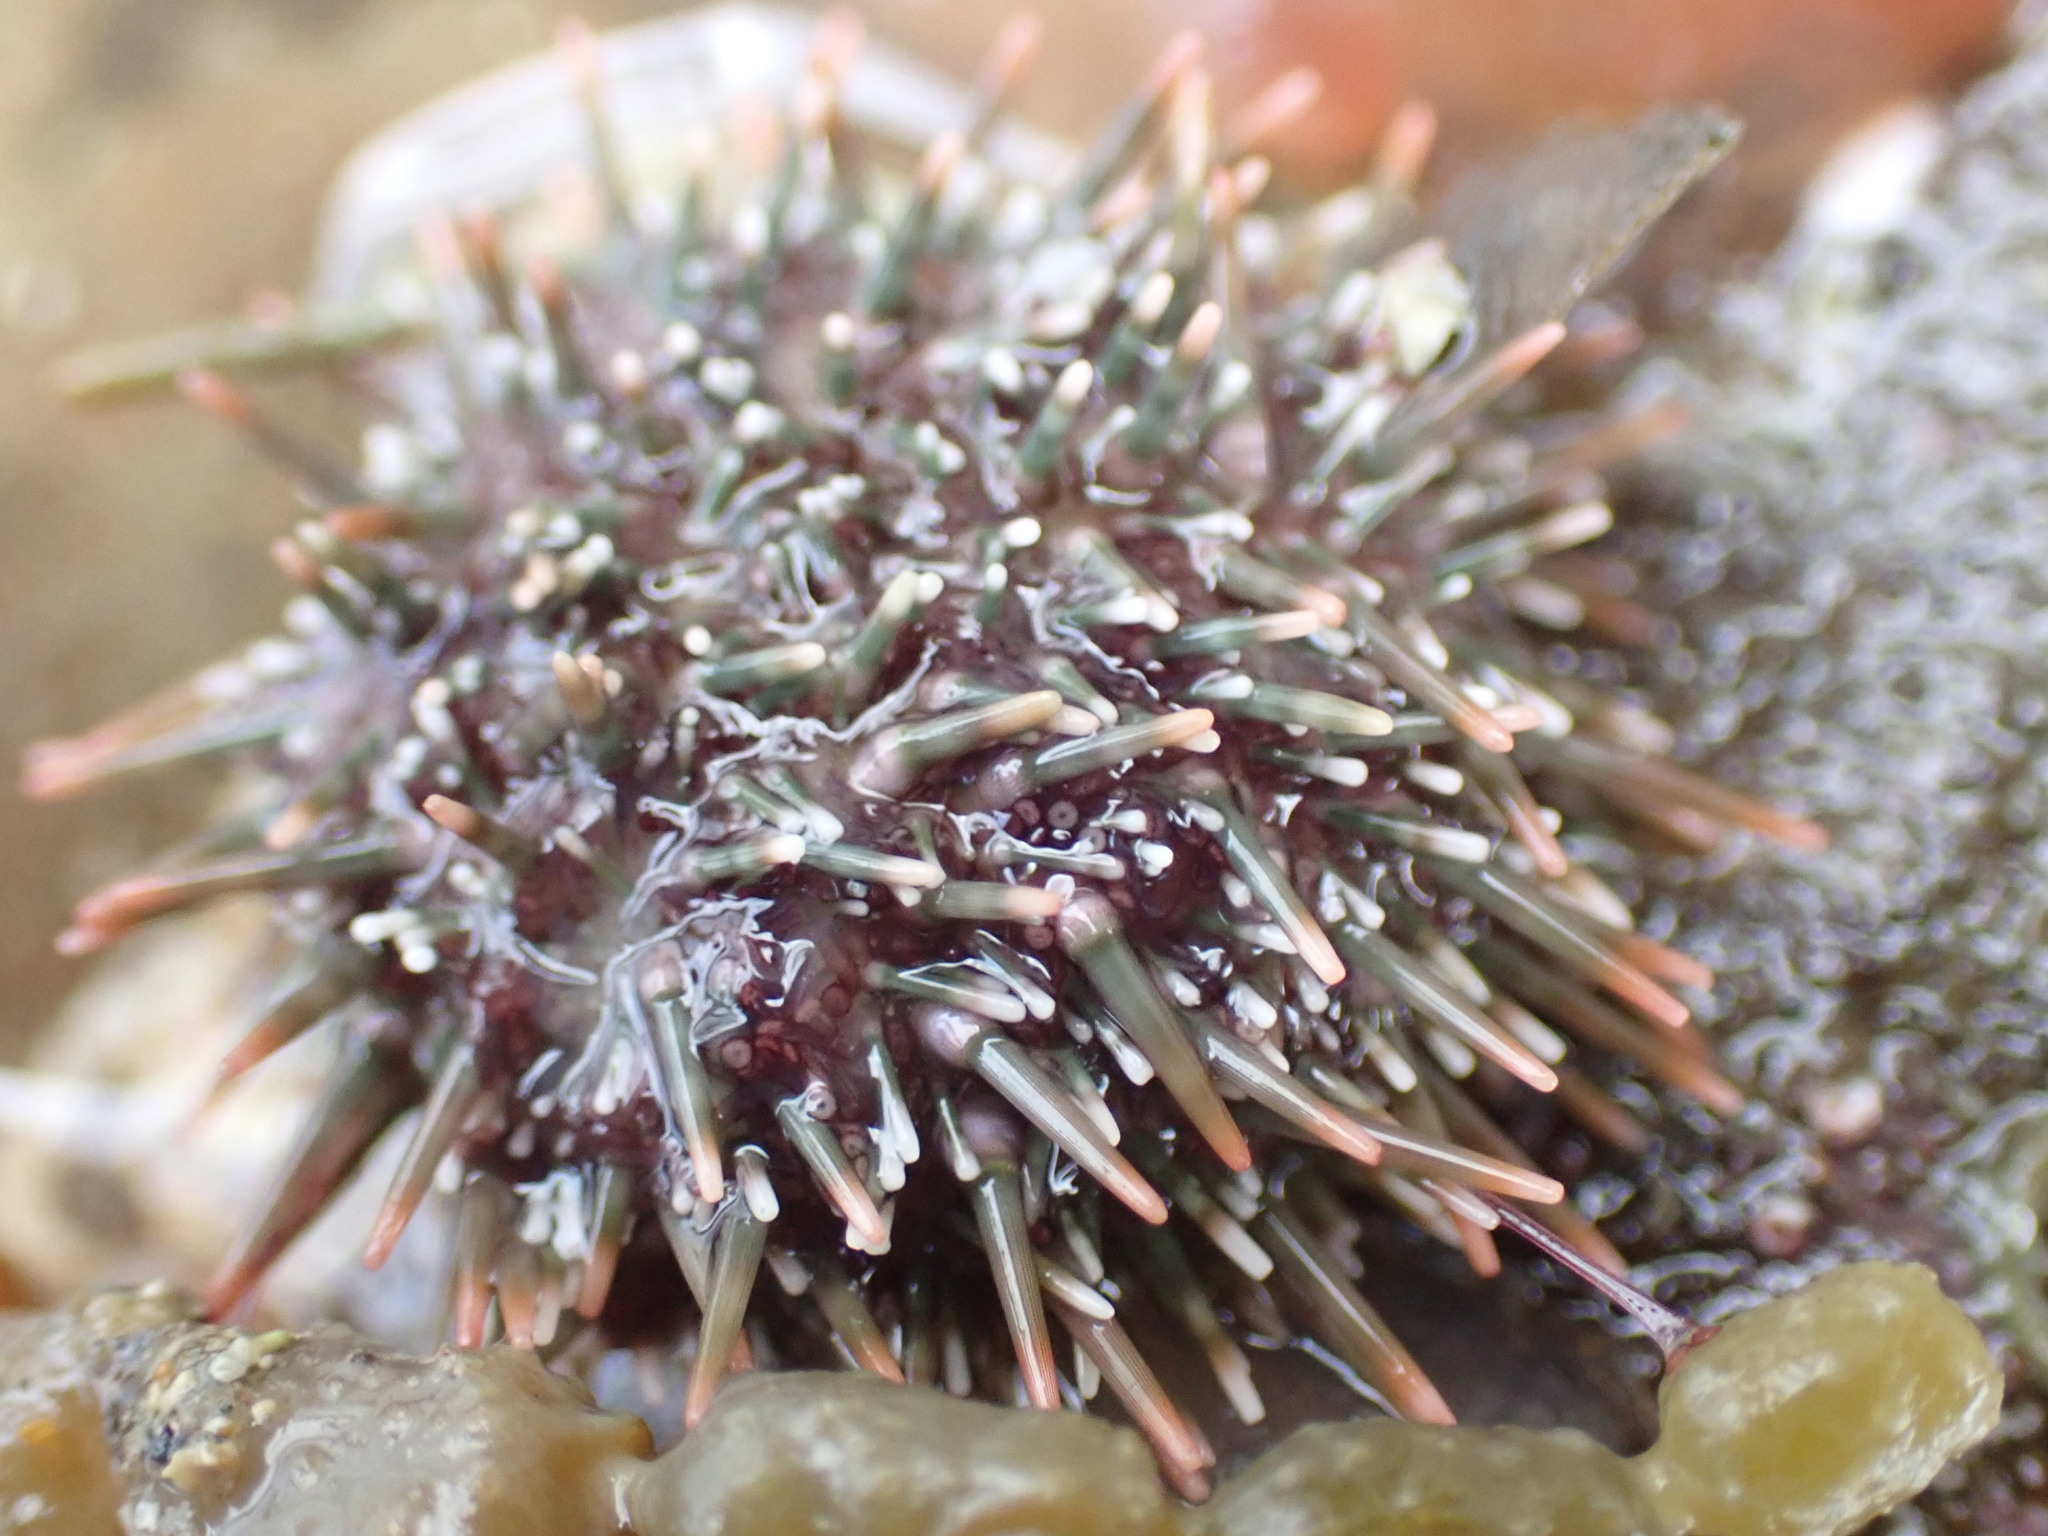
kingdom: Animalia
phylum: Echinodermata
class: Echinoidea
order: Camarodonta
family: Echinometridae
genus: Evechinus
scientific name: Evechinus chloroticus
